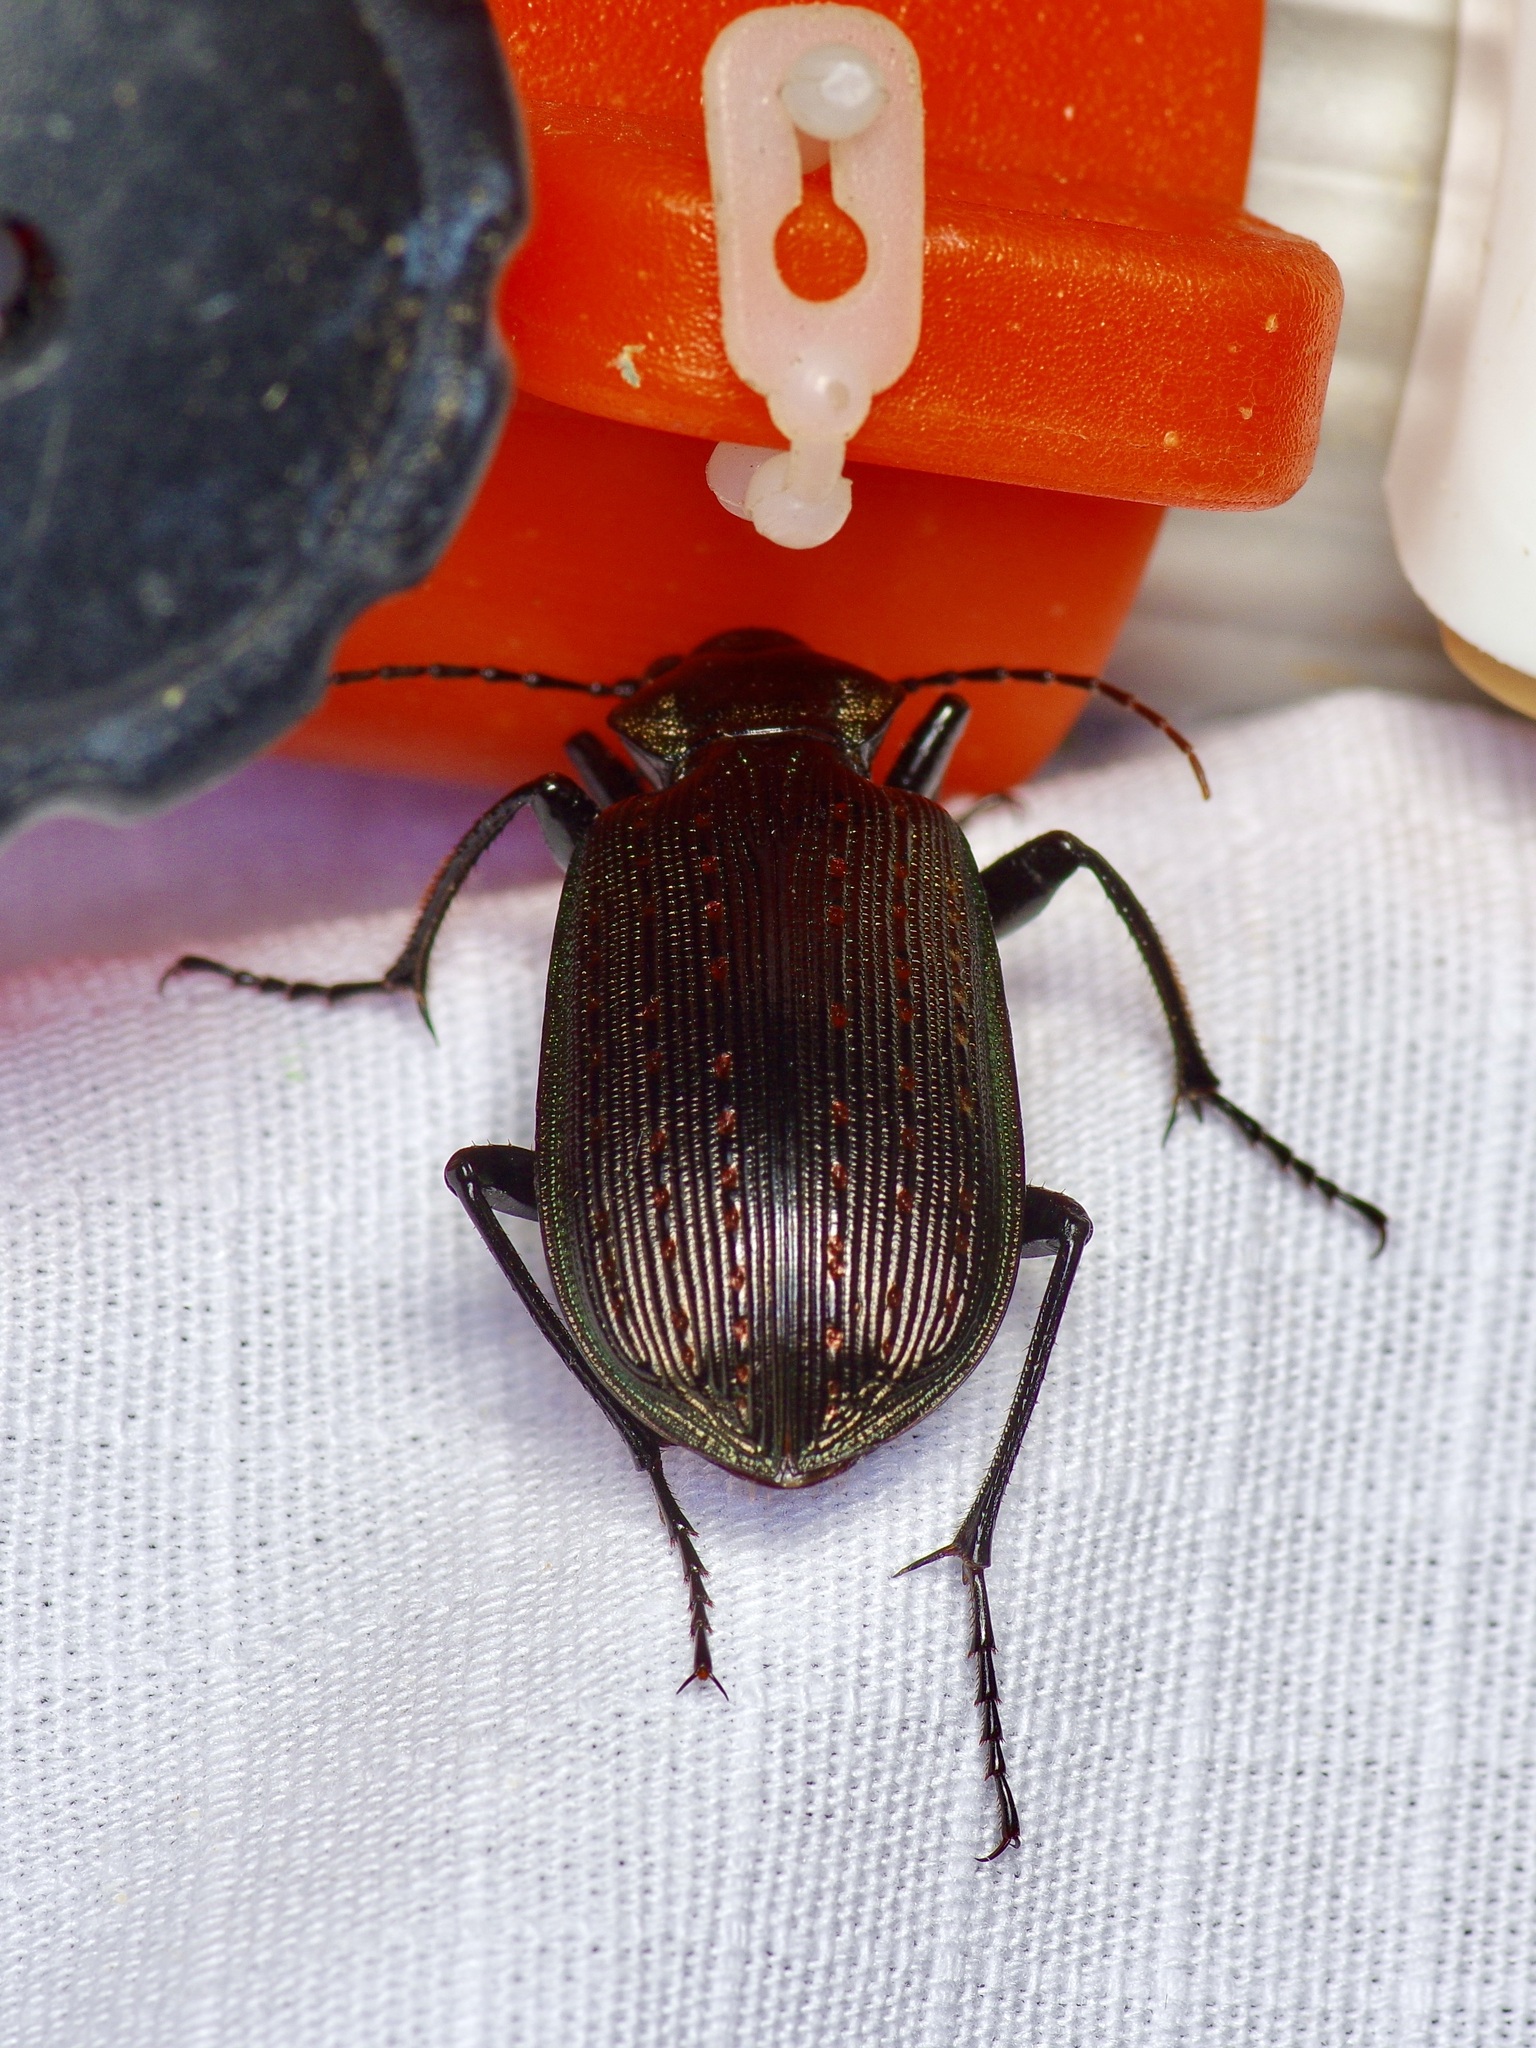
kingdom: Animalia
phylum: Arthropoda
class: Insecta
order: Coleoptera
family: Carabidae
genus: Calosoma
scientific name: Calosoma sayi
